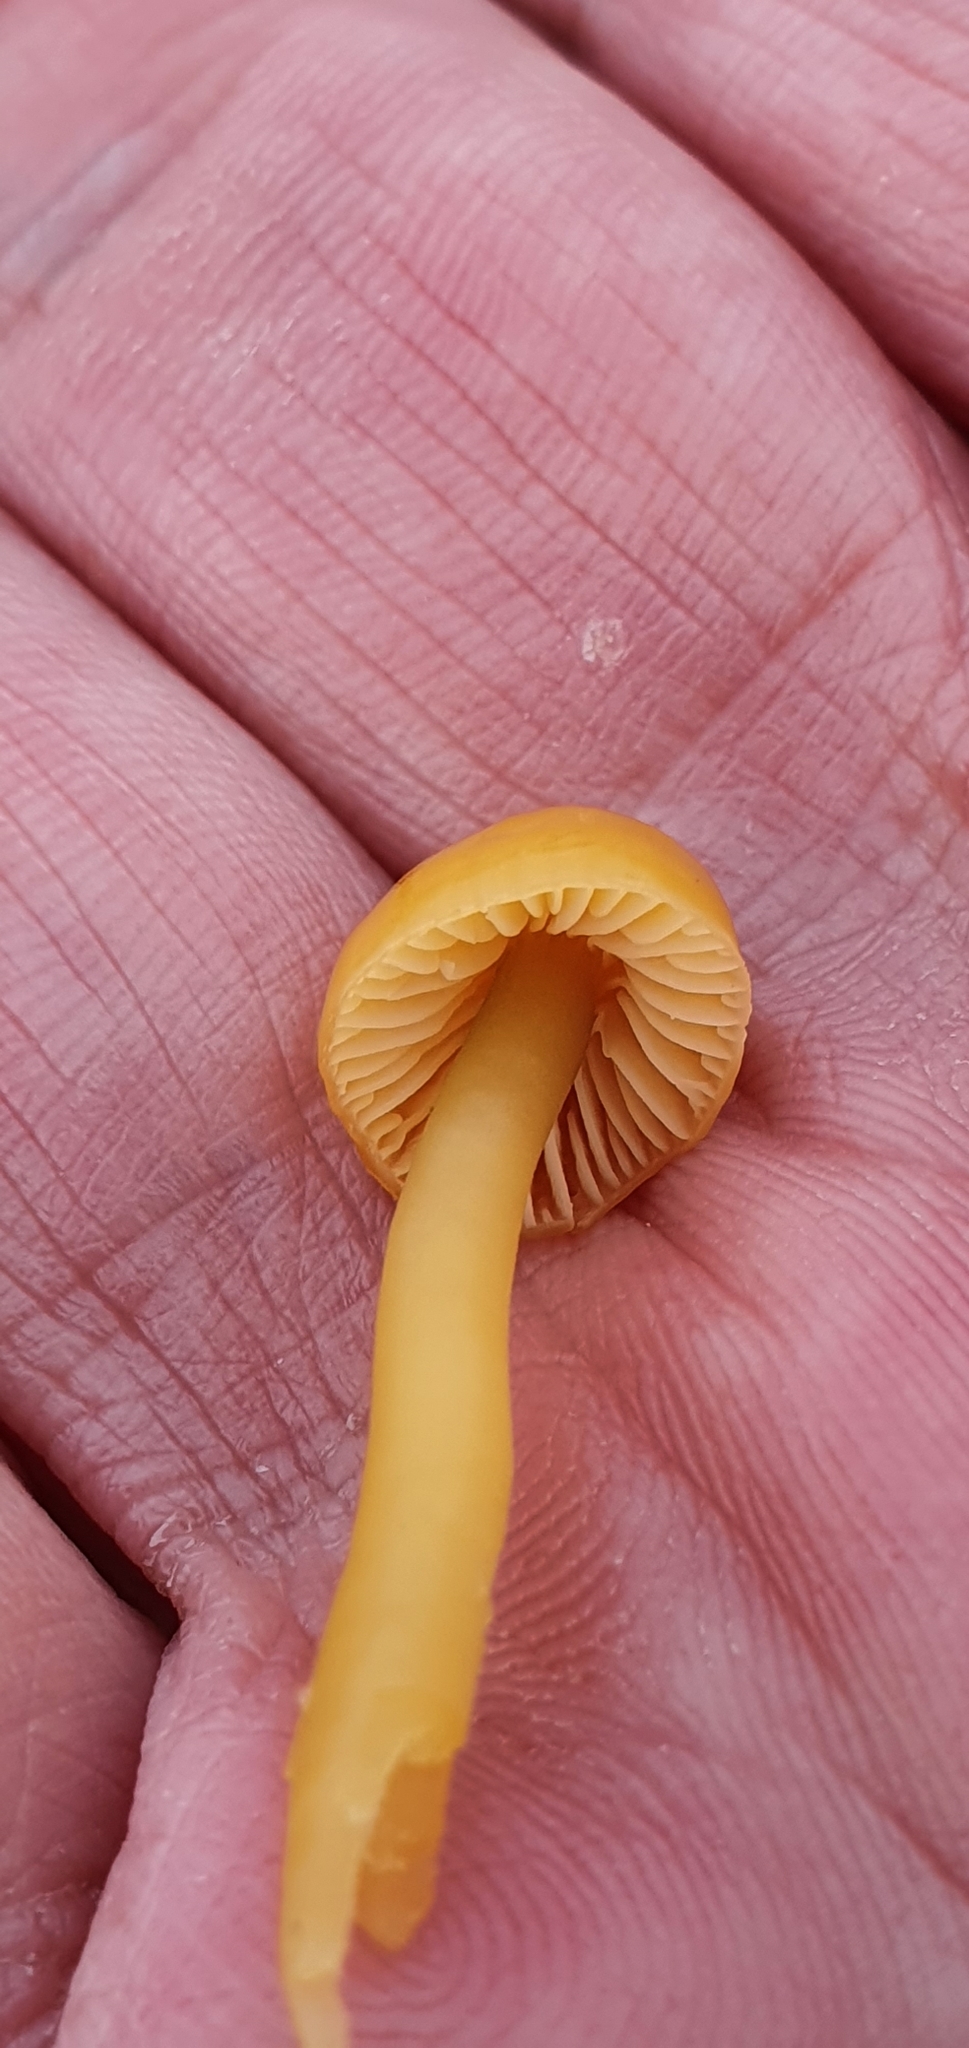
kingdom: Fungi
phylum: Basidiomycota
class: Agaricomycetes
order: Agaricales
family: Hygrophoraceae
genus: Gliophorus
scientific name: Gliophorus psittacinus
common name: Parrot wax-cap
